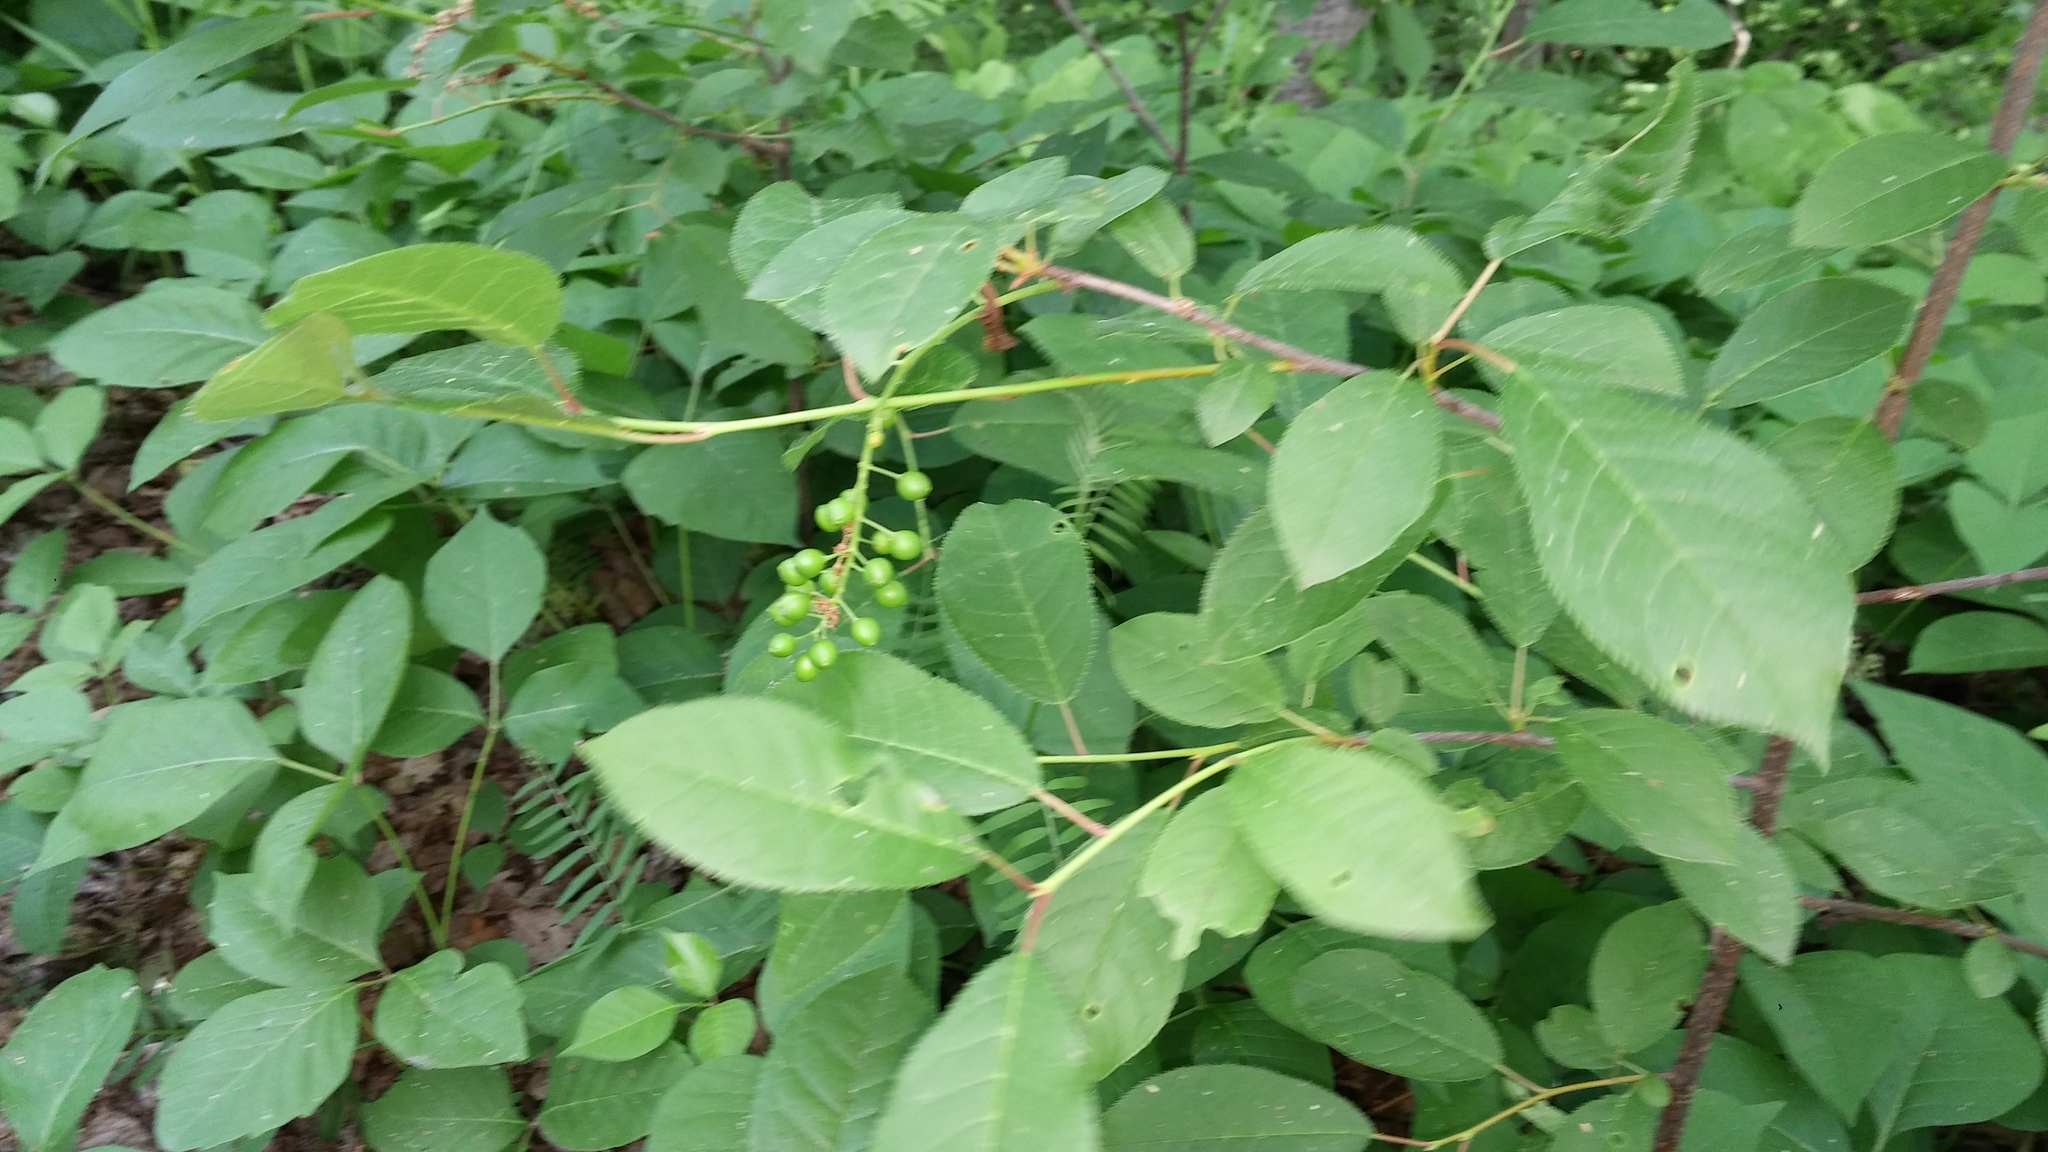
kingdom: Plantae
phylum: Tracheophyta
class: Magnoliopsida
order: Rosales
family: Rosaceae
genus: Prunus
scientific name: Prunus virginiana
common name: Chokecherry
